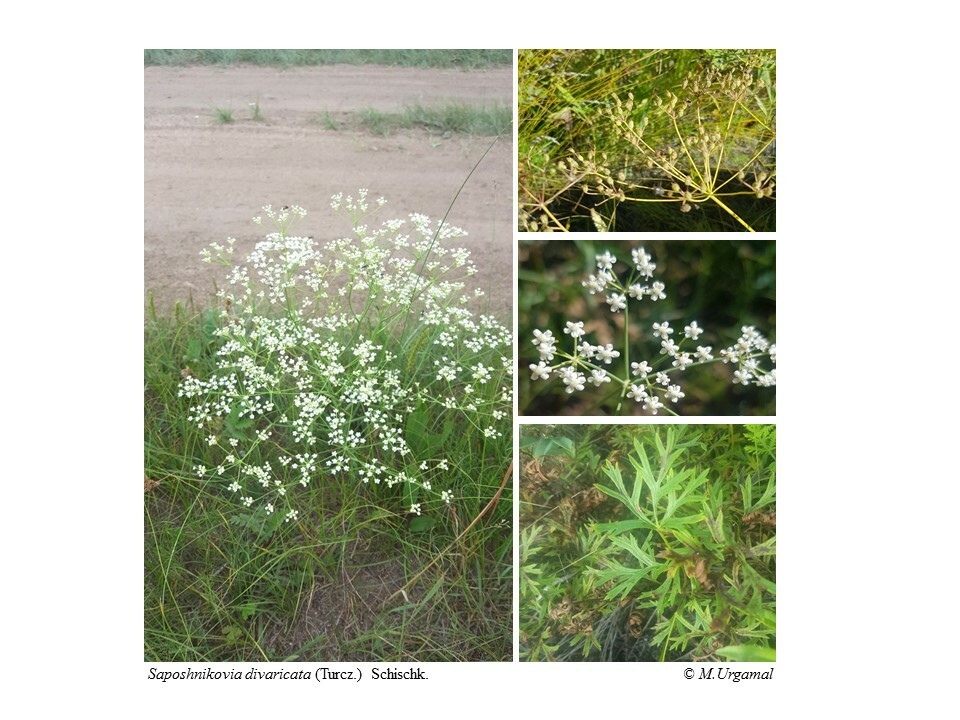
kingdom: Plantae
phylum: Tracheophyta
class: Magnoliopsida
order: Apiales
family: Apiaceae
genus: Saposhnikovia
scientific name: Saposhnikovia divaricata
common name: Siler
